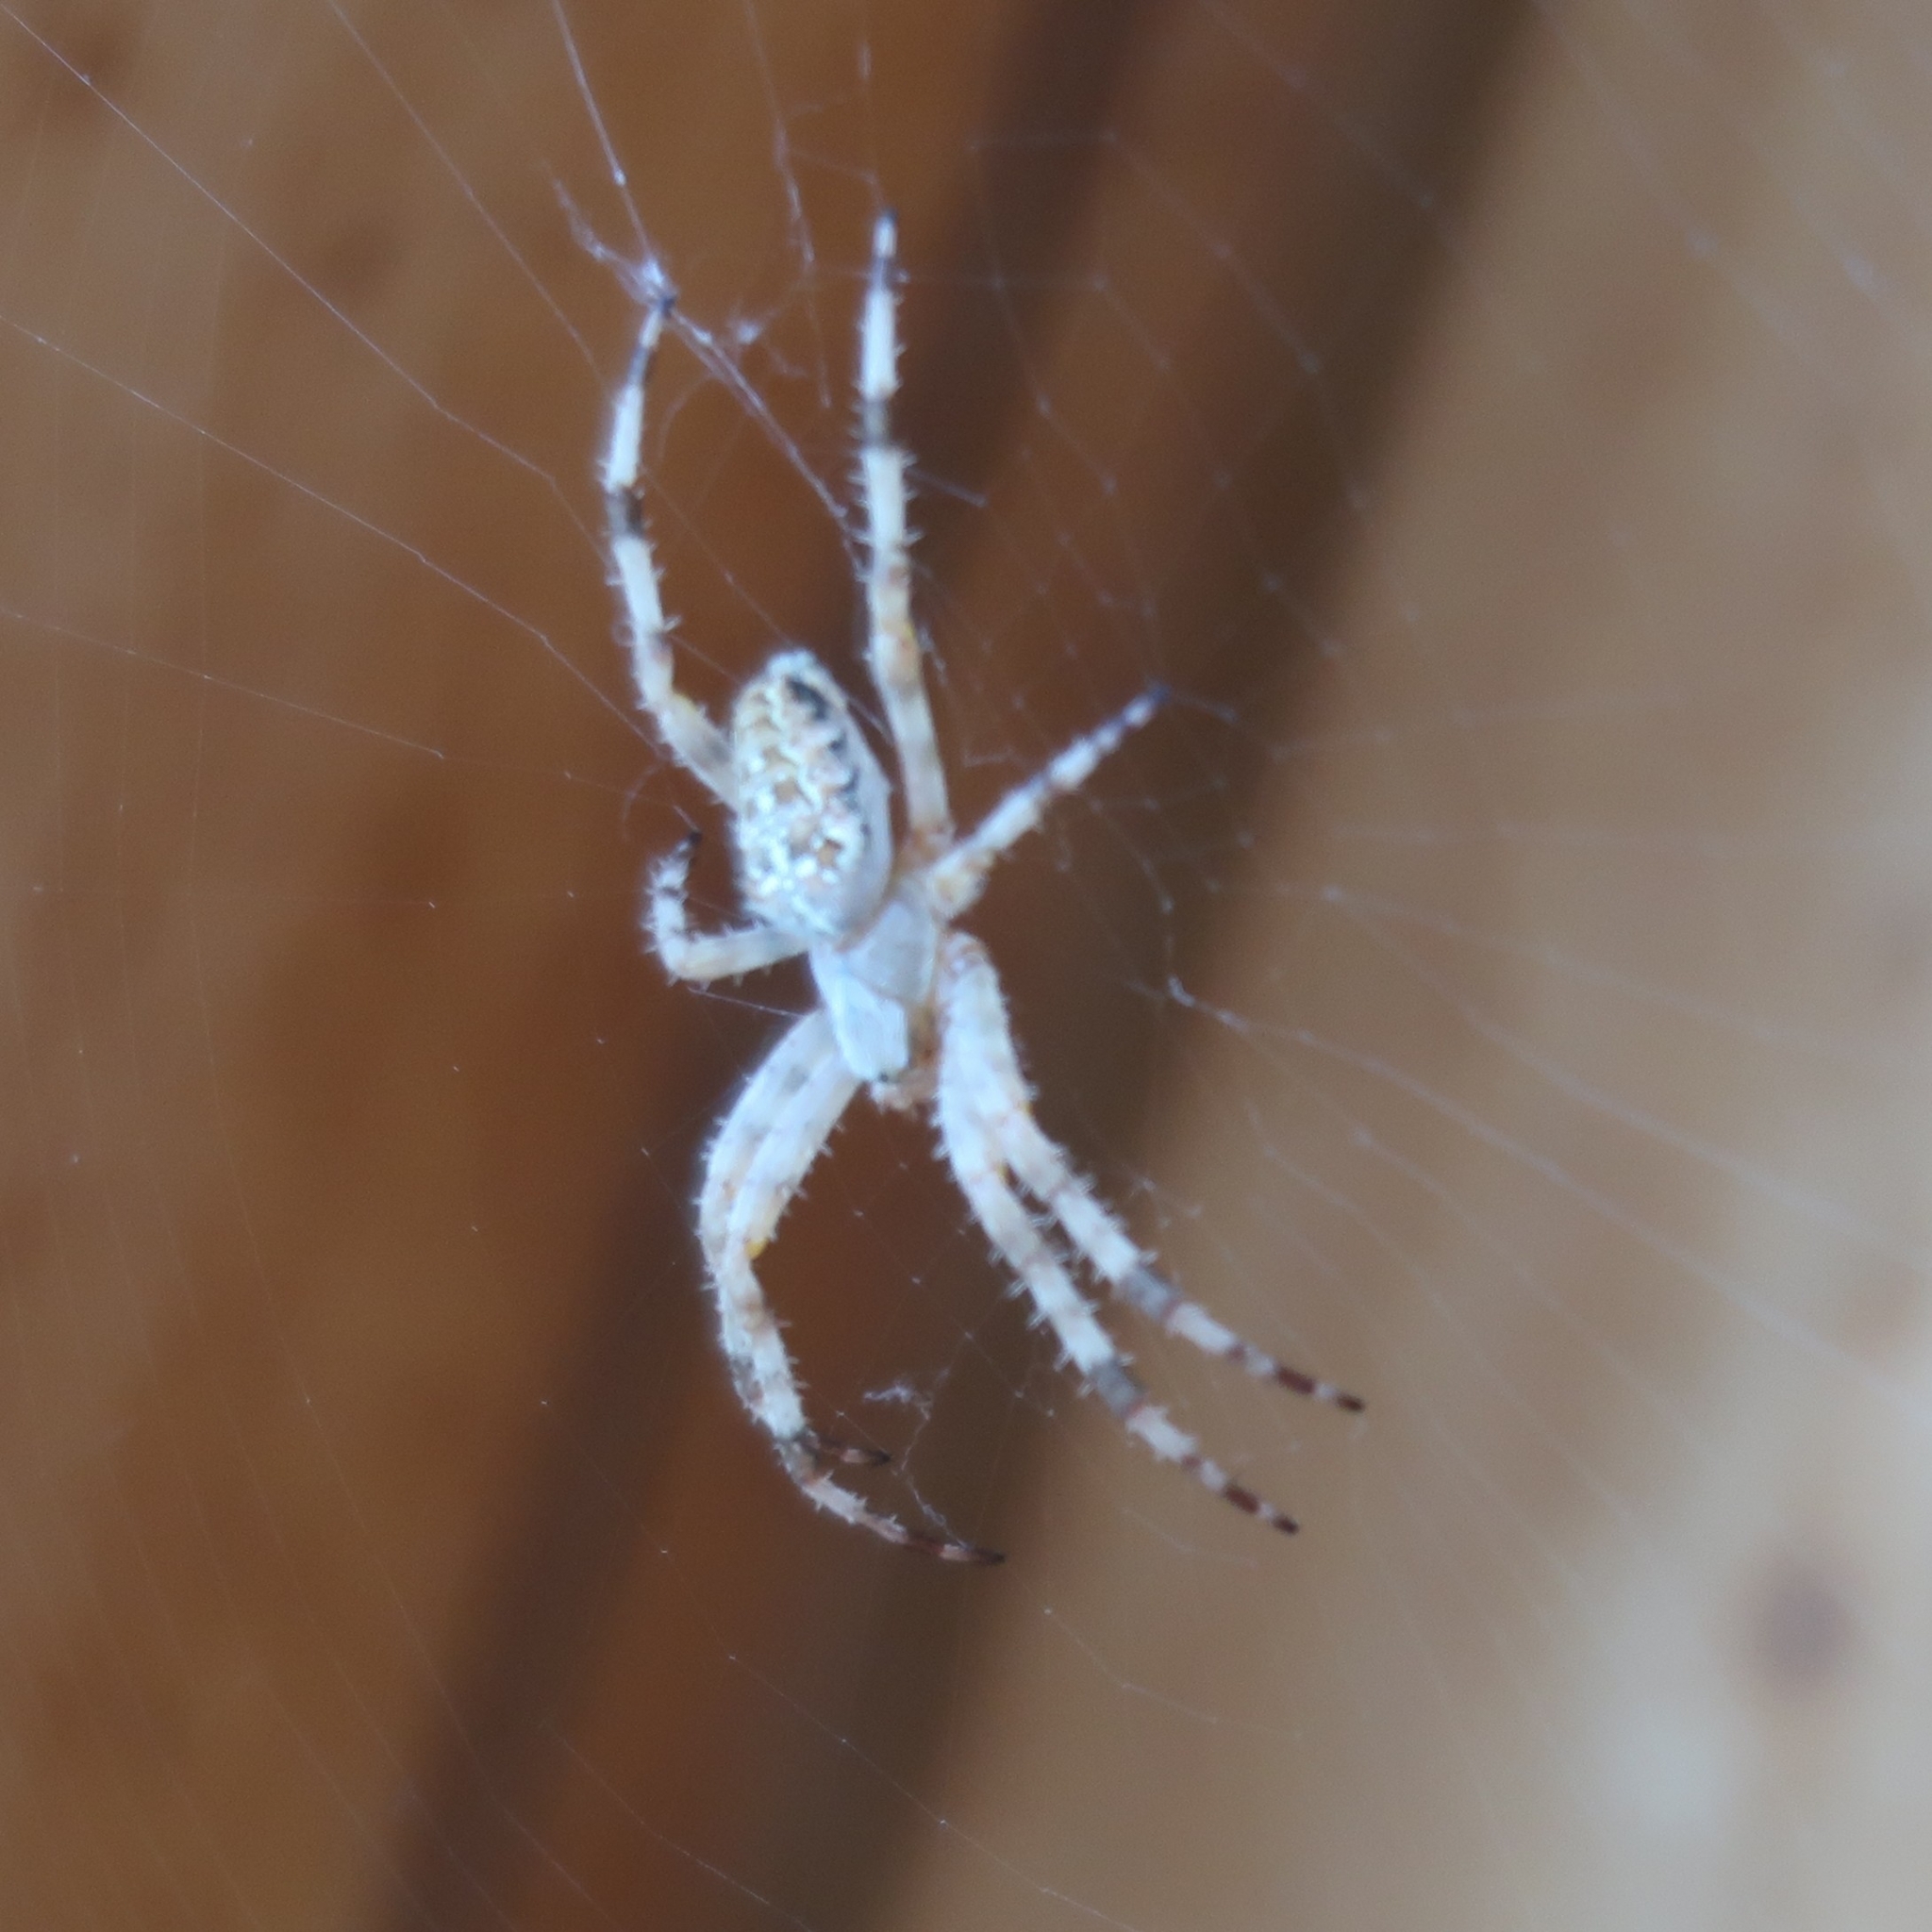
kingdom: Animalia
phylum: Arthropoda
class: Arachnida
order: Araneae
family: Araneidae
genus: Araneus
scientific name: Araneus diadematus
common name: Cross orbweaver
